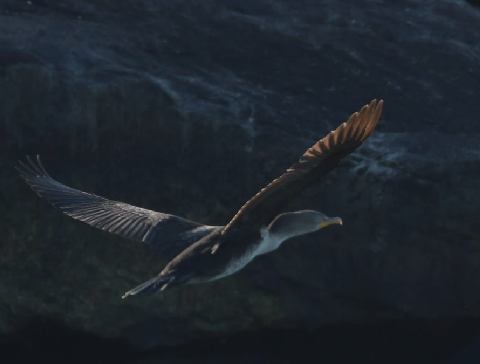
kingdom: Animalia
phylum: Chordata
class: Aves
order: Suliformes
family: Phalacrocoracidae
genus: Phalacrocorax
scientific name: Phalacrocorax auritus
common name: Double-crested cormorant
